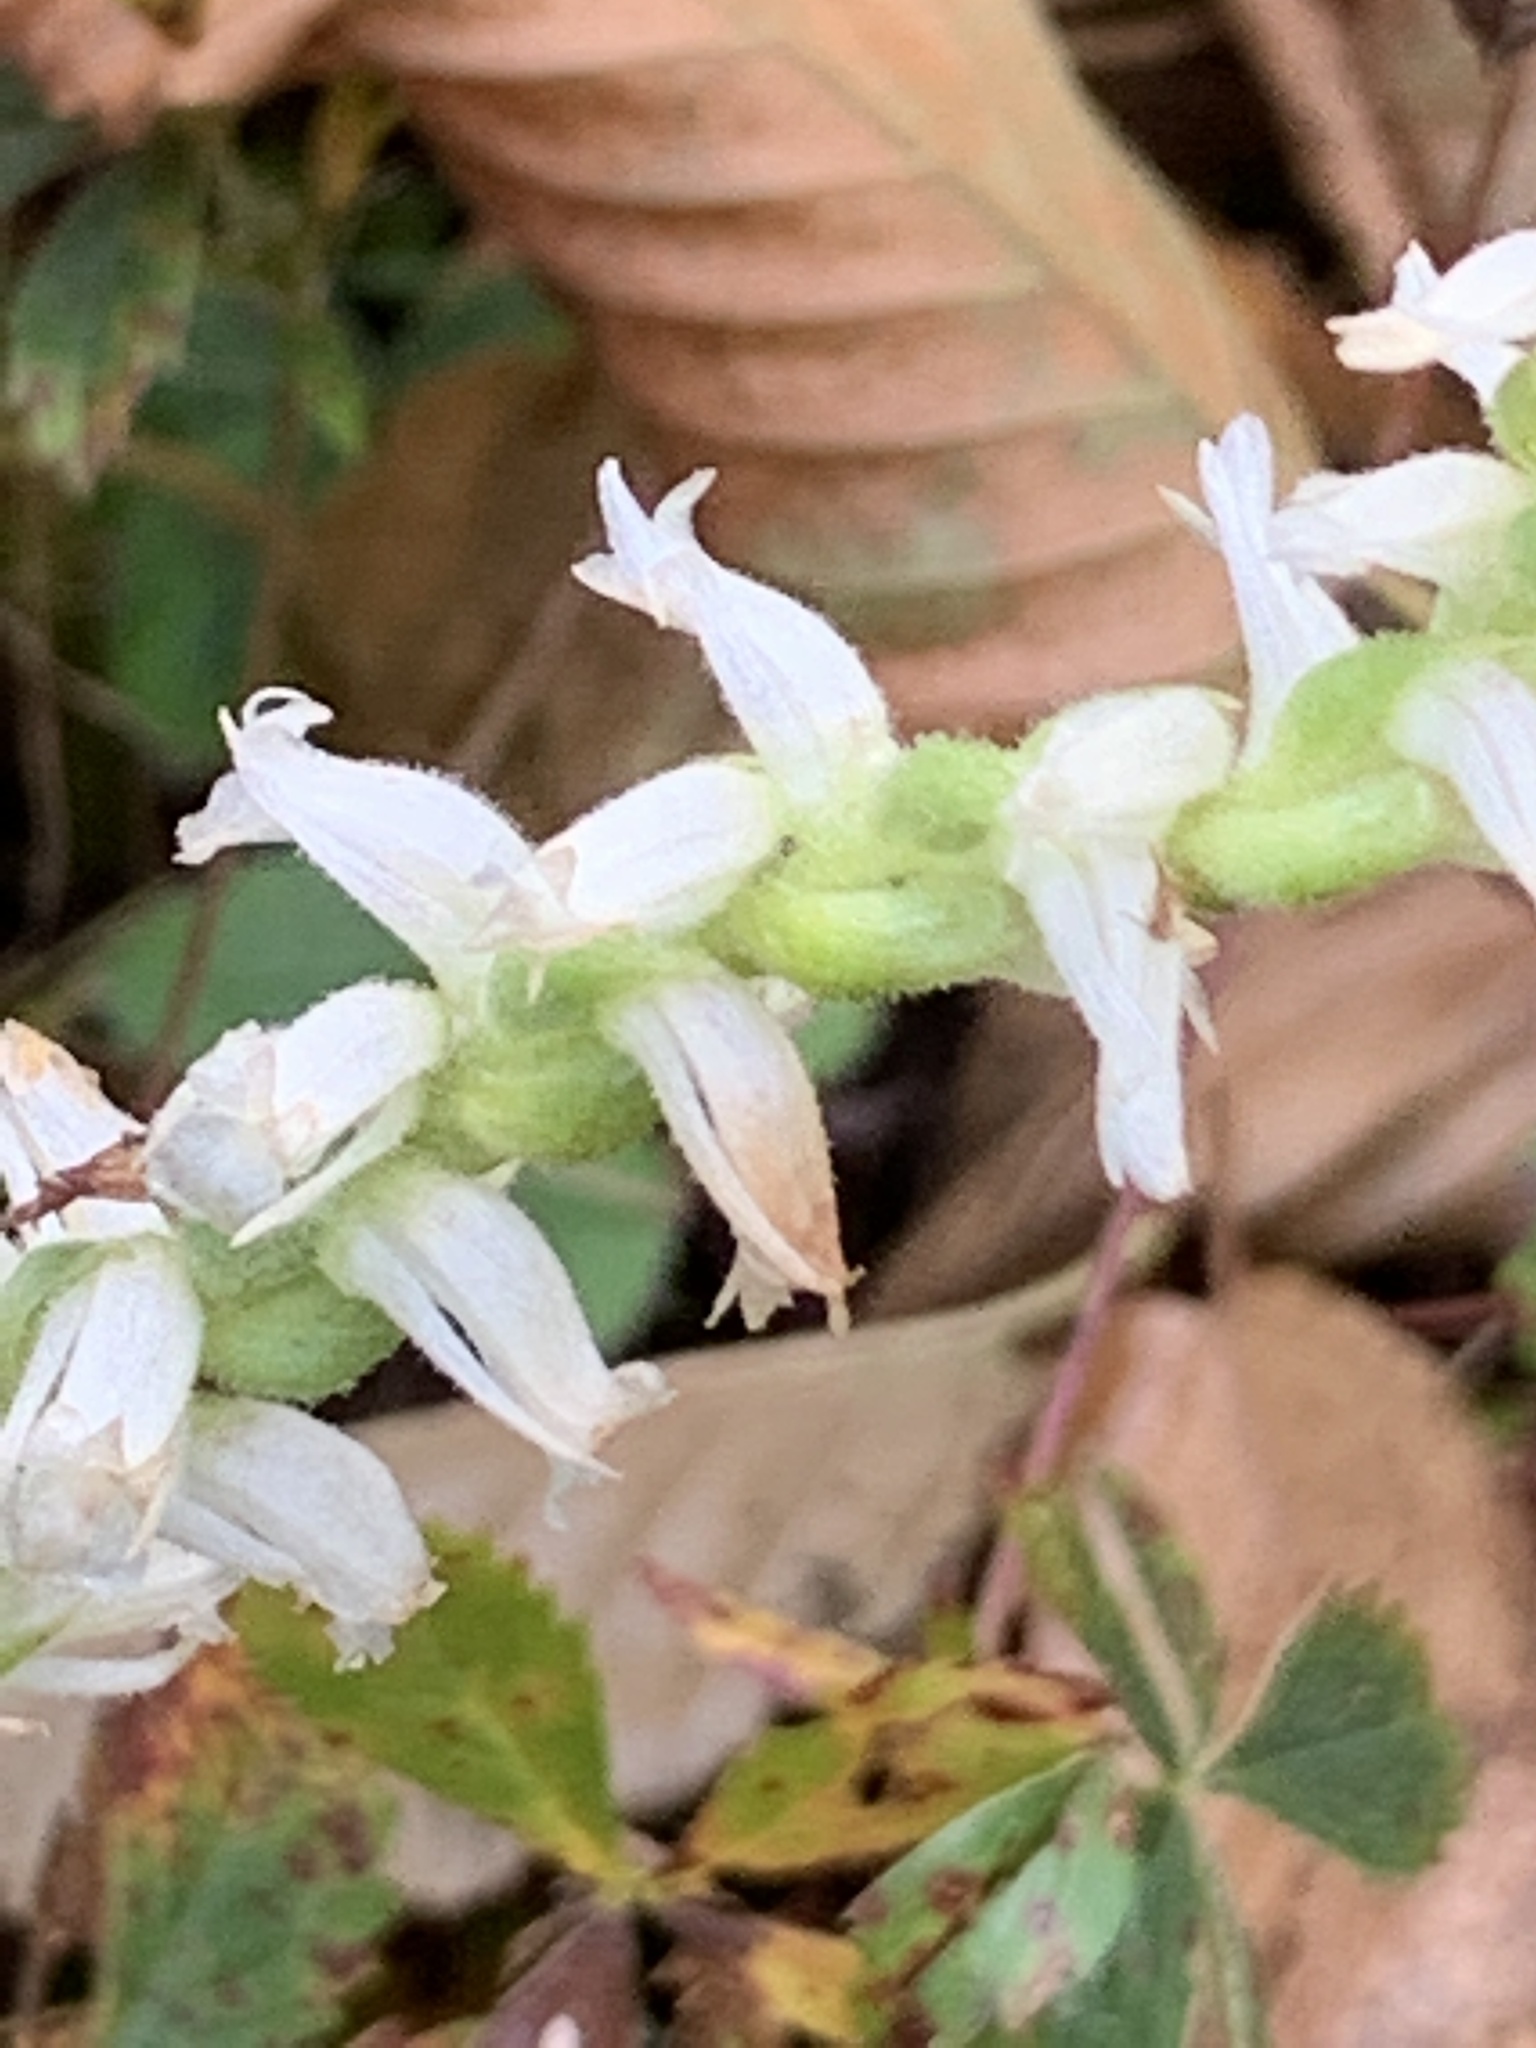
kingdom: Plantae
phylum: Tracheophyta
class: Liliopsida
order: Asparagales
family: Orchidaceae
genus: Spiranthes
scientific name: Spiranthes ochroleuca
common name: Yellow ladies'-tresses
